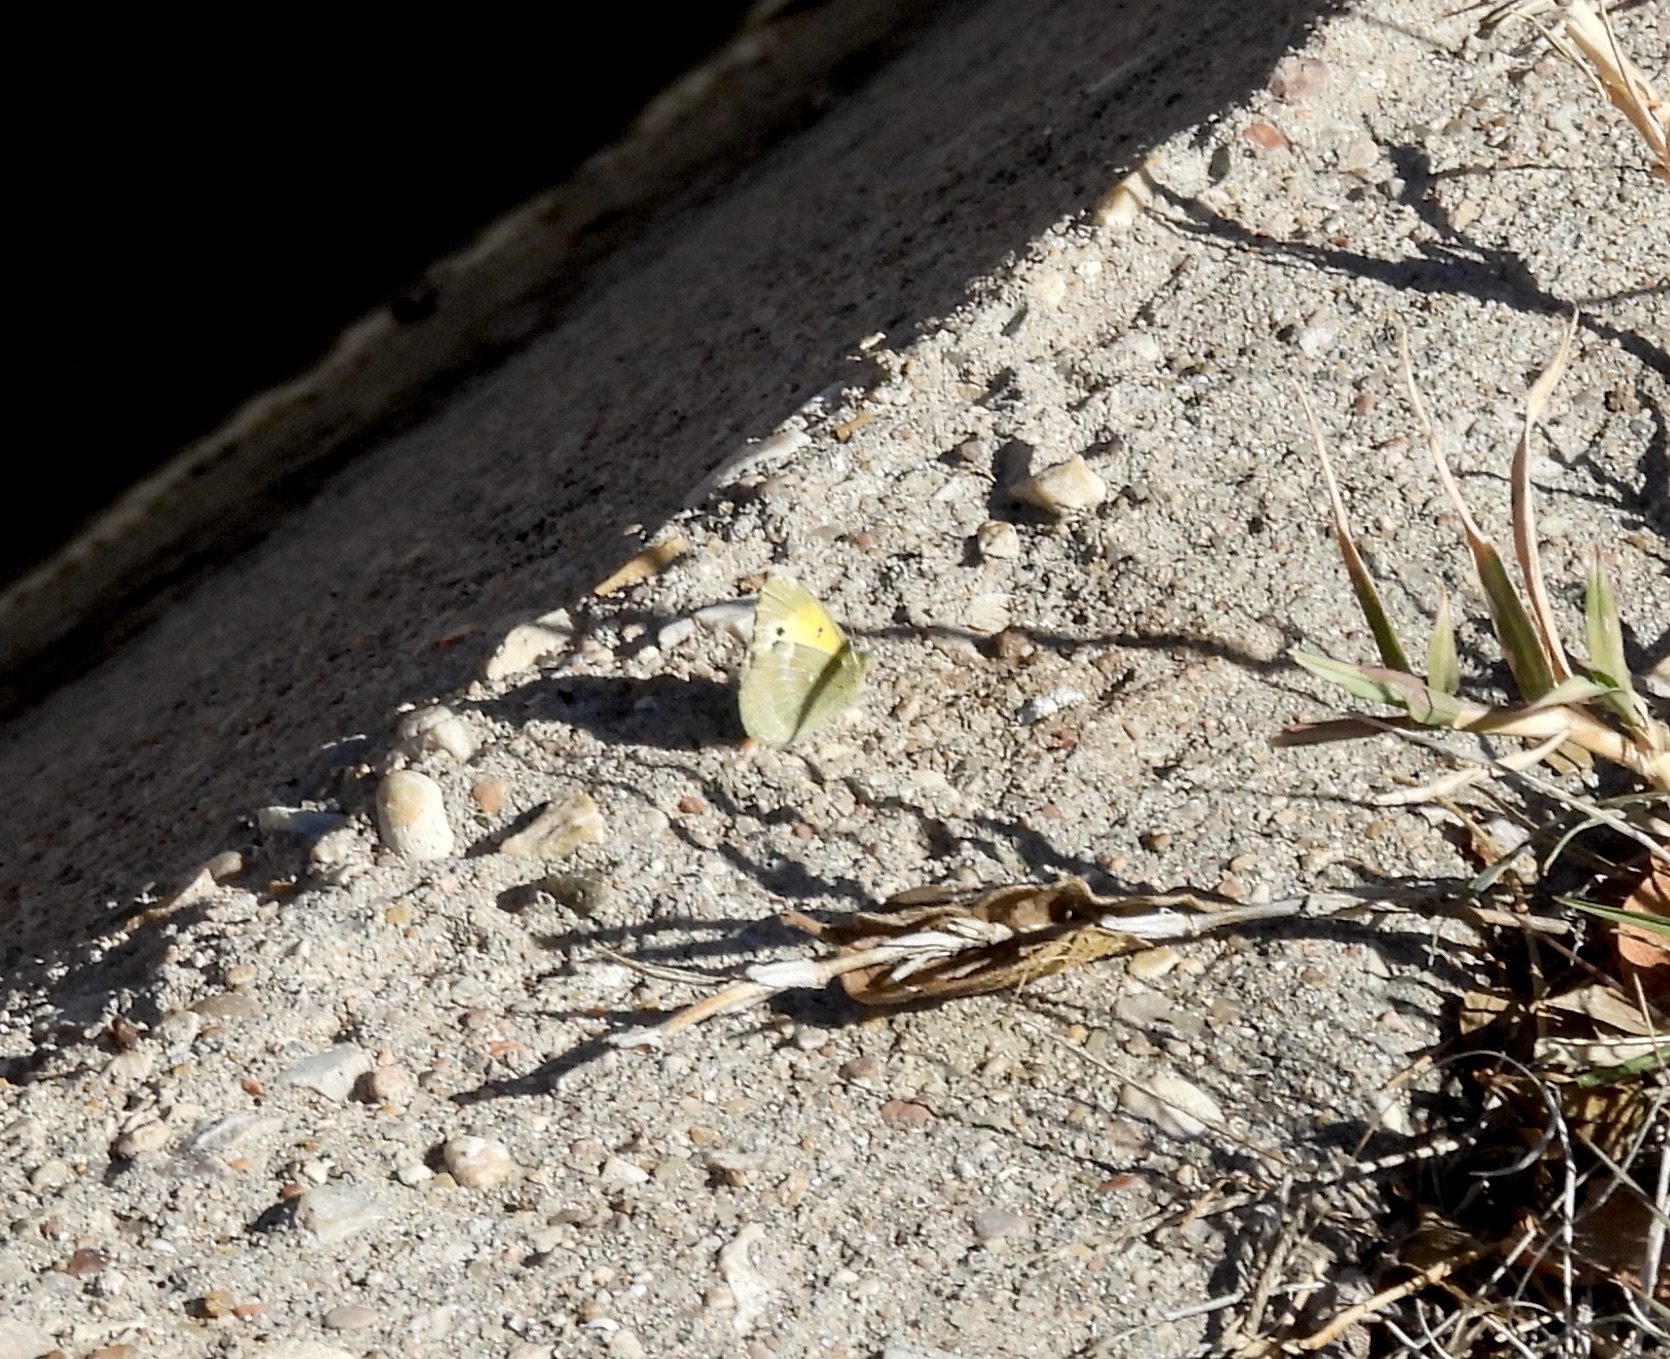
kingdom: Animalia
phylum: Arthropoda
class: Insecta
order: Lepidoptera
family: Pieridae
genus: Nathalis
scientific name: Nathalis iole
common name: Dainty sulphur
